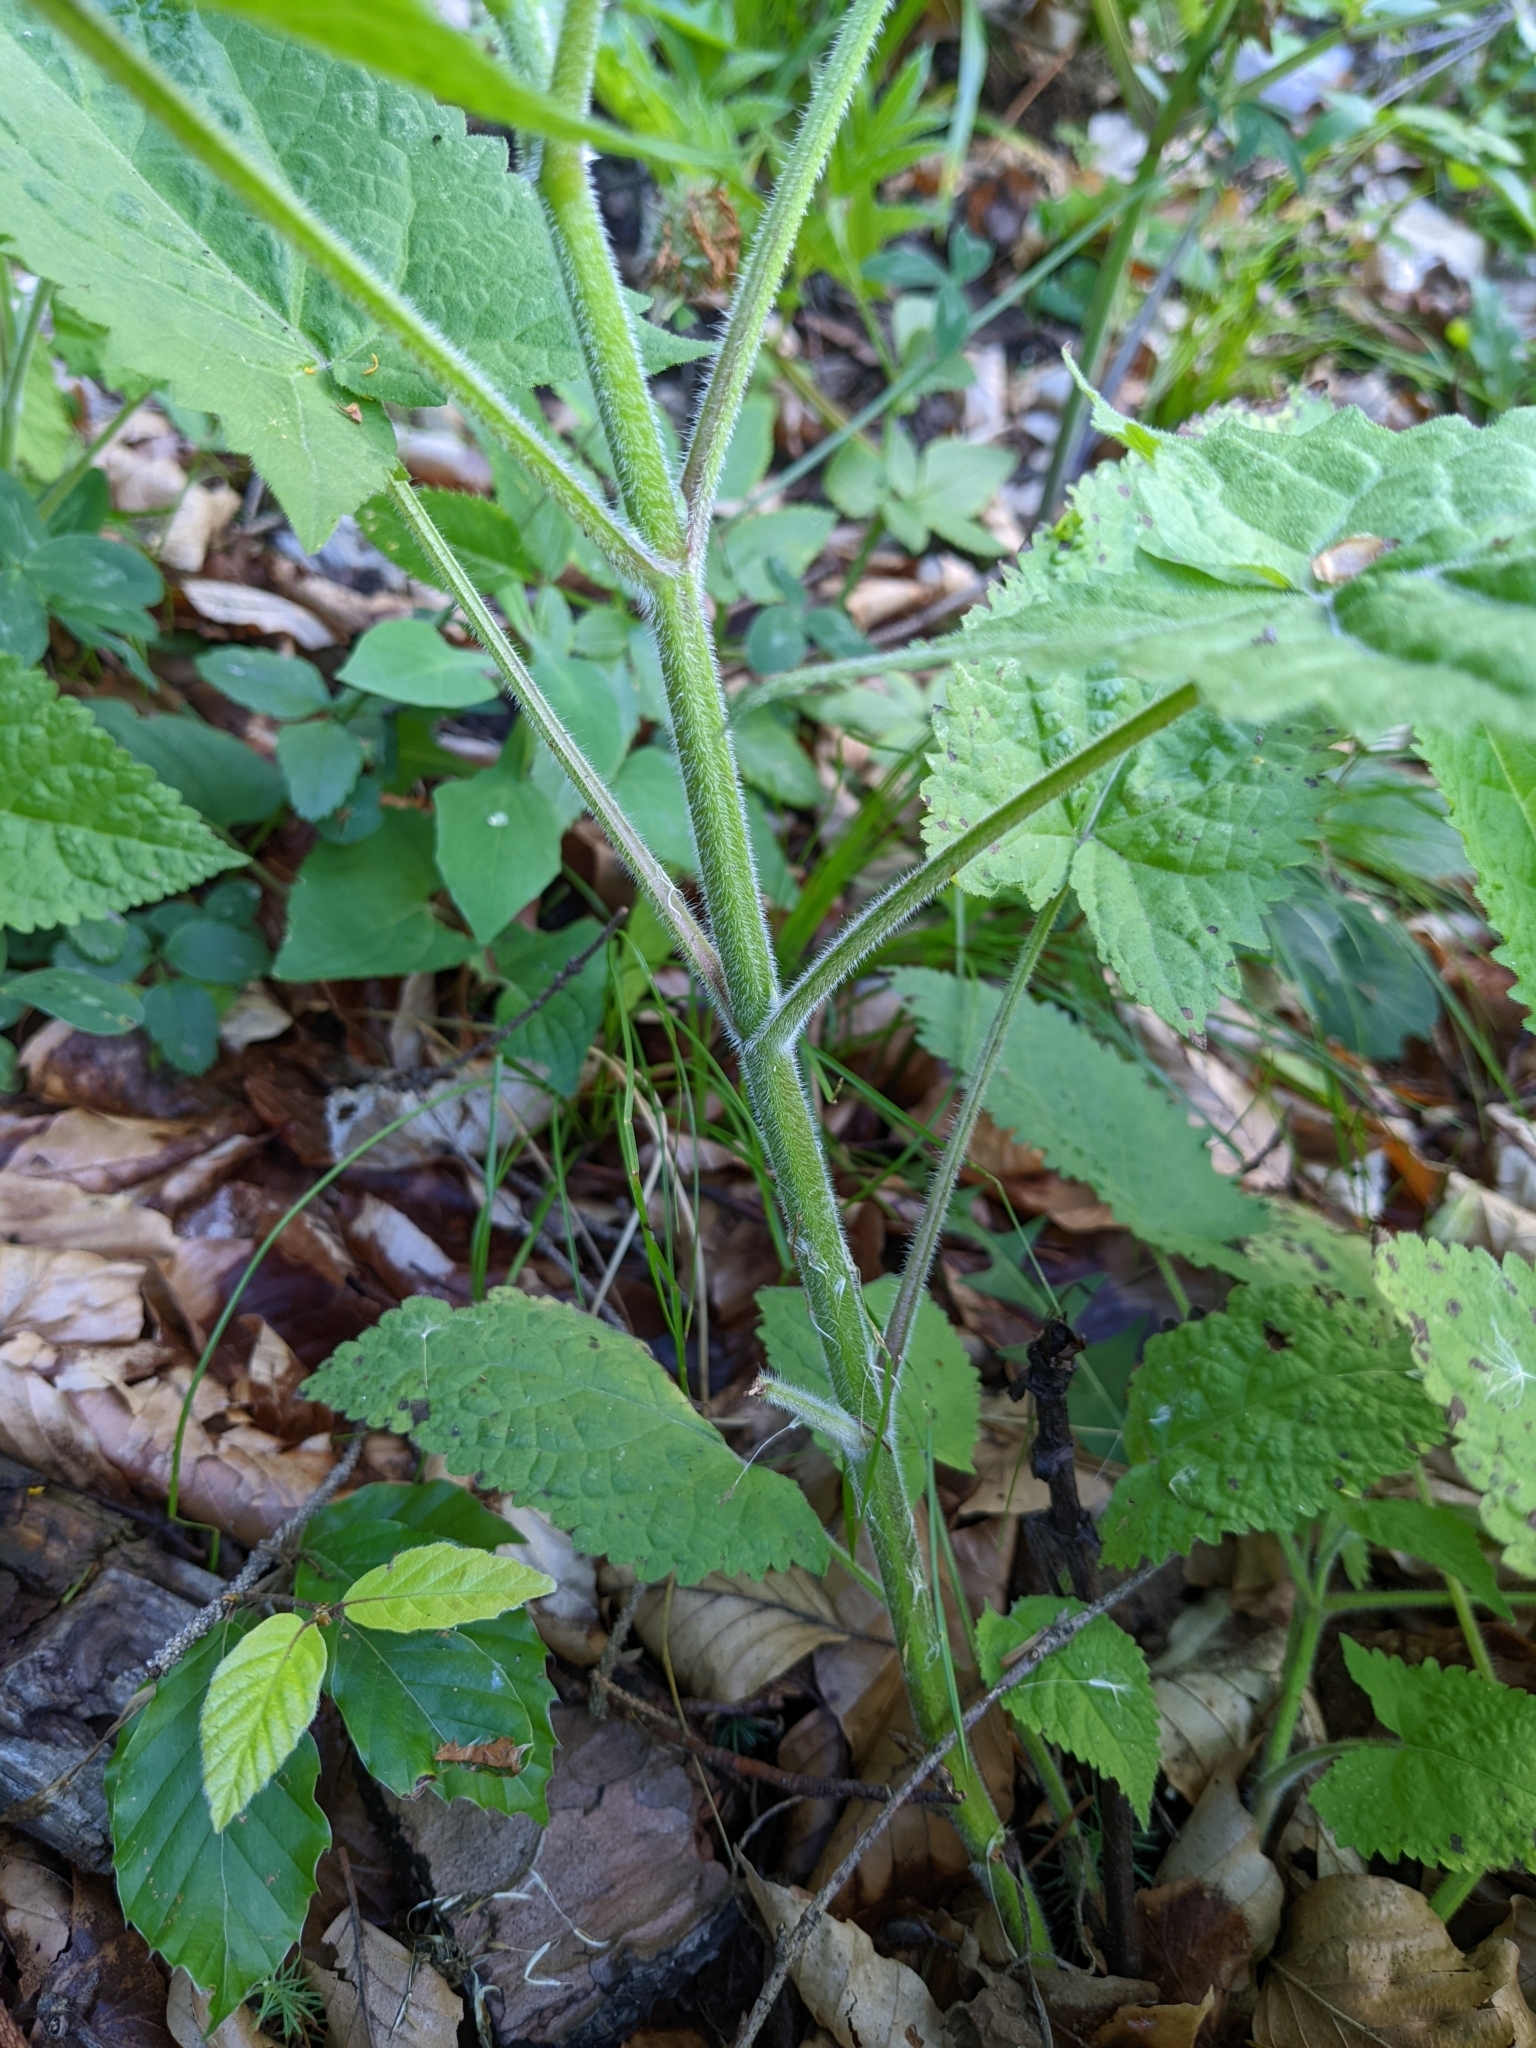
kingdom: Plantae
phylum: Tracheophyta
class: Magnoliopsida
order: Lamiales
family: Lamiaceae
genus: Salvia
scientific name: Salvia glutinosa
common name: Sticky clary
